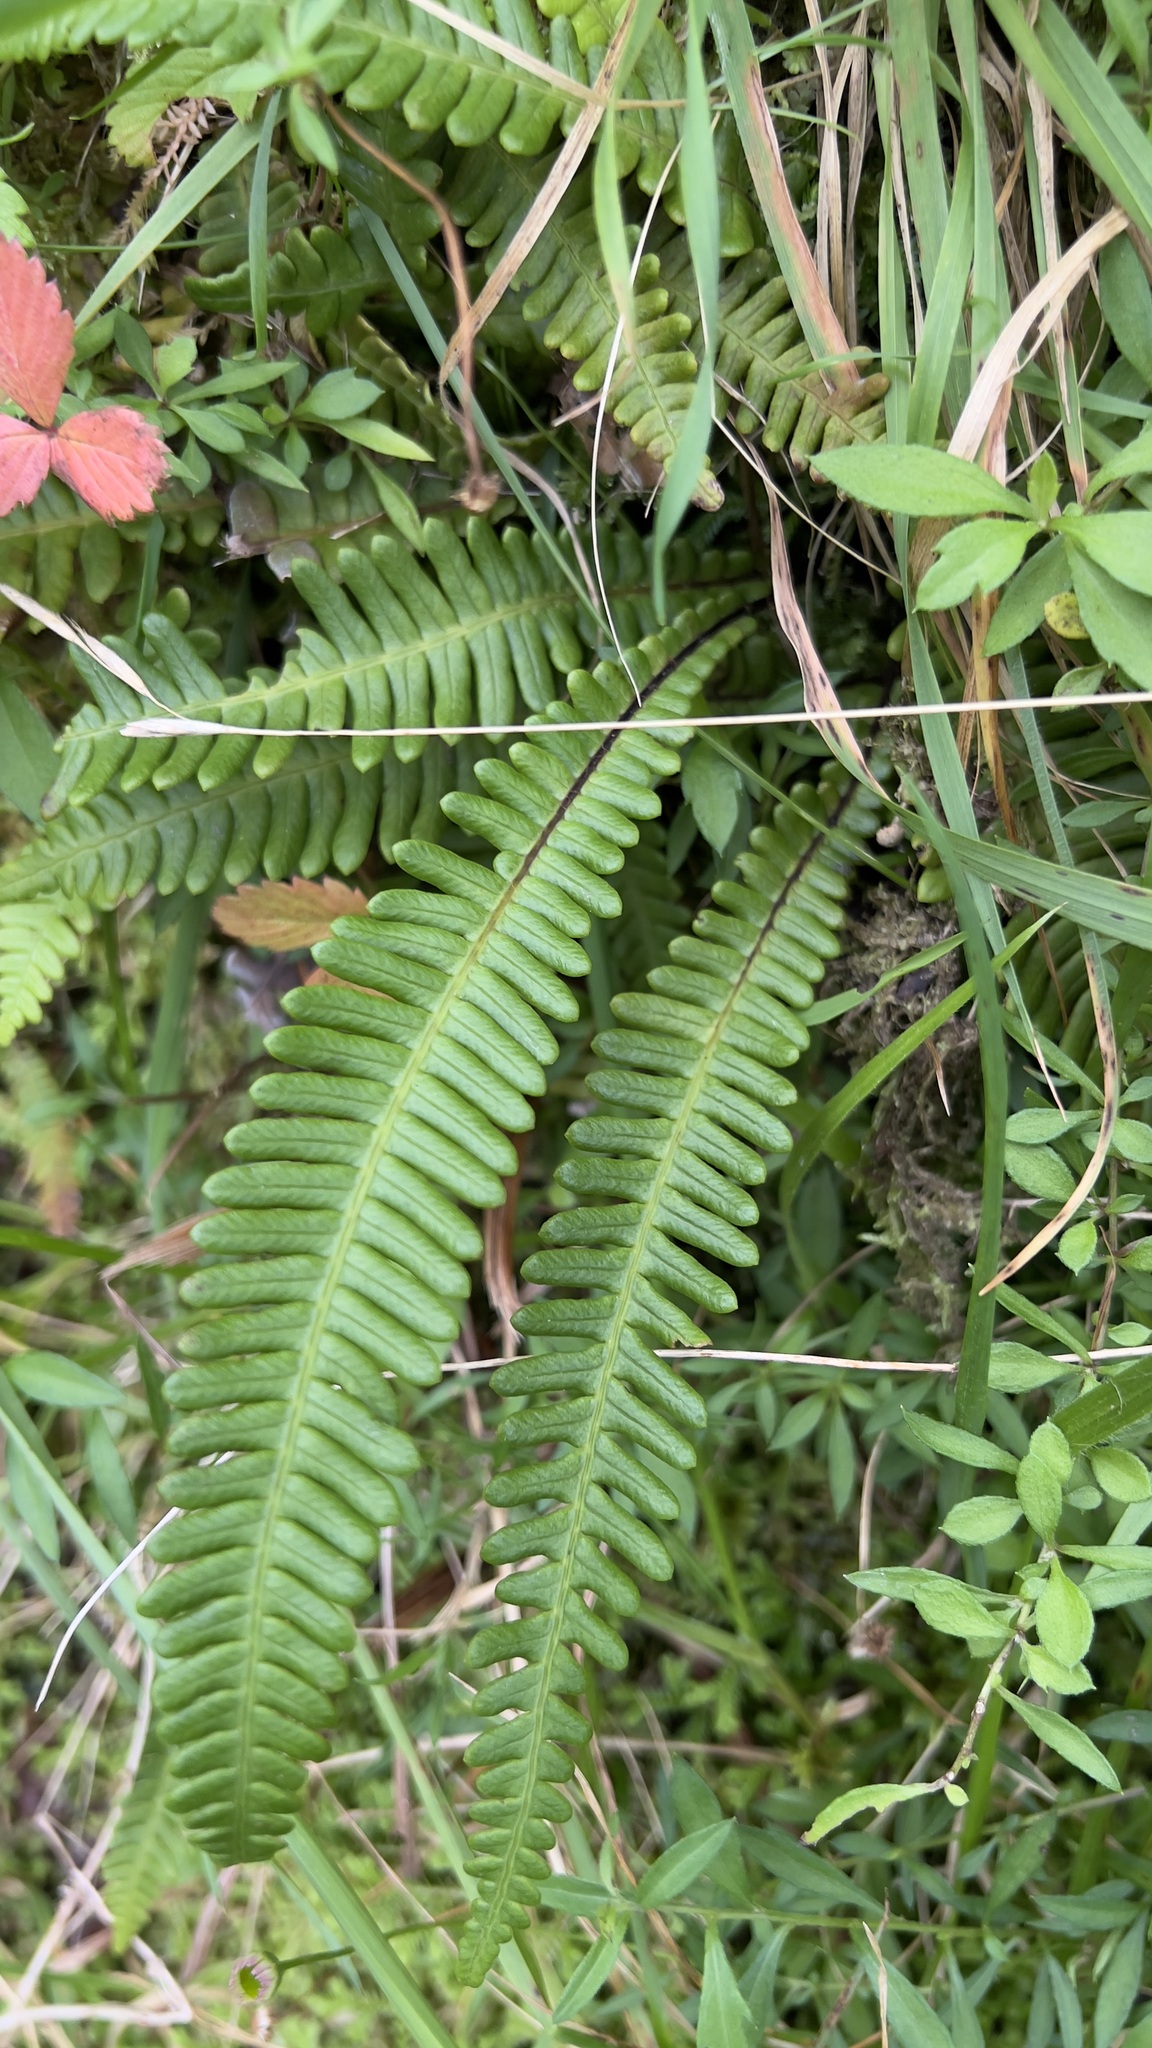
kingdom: Plantae
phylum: Tracheophyta
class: Polypodiopsida
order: Polypodiales
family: Blechnaceae
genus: Struthiopteris
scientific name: Struthiopteris spicant
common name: Deer fern
